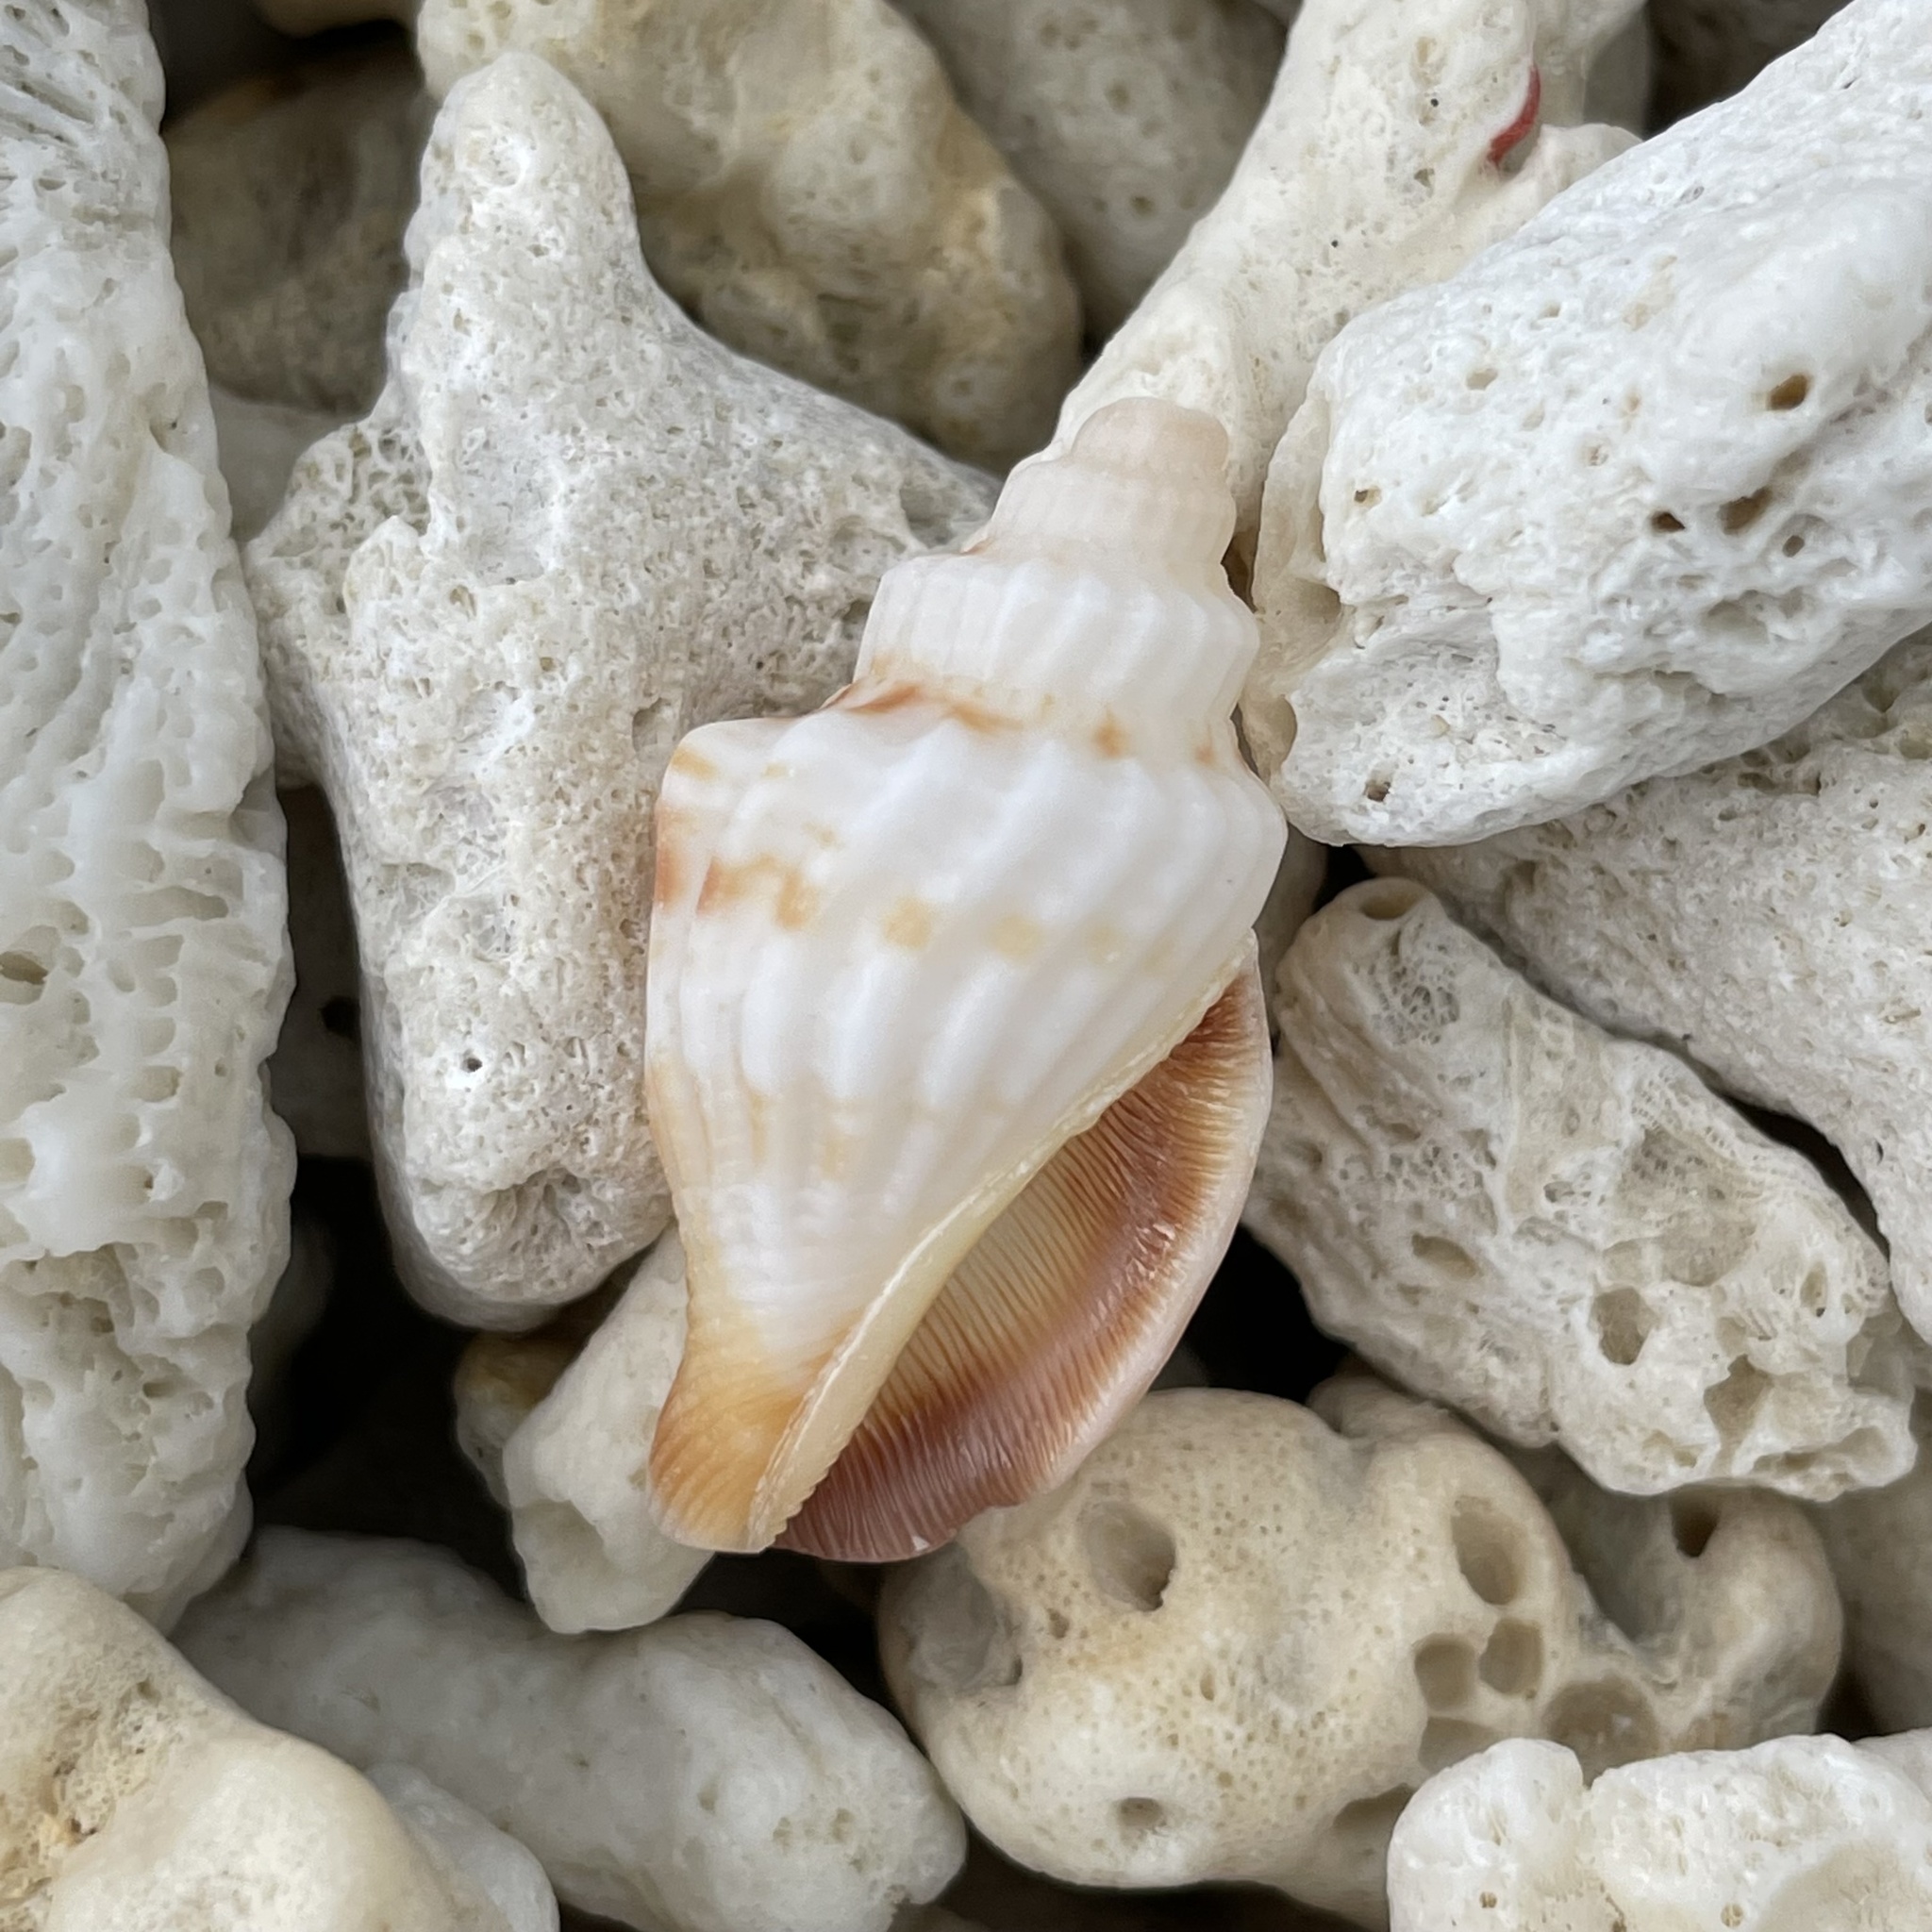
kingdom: Animalia
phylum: Mollusca
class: Gastropoda
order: Littorinimorpha
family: Strombidae
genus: Canarium
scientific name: Canarium labiatum
